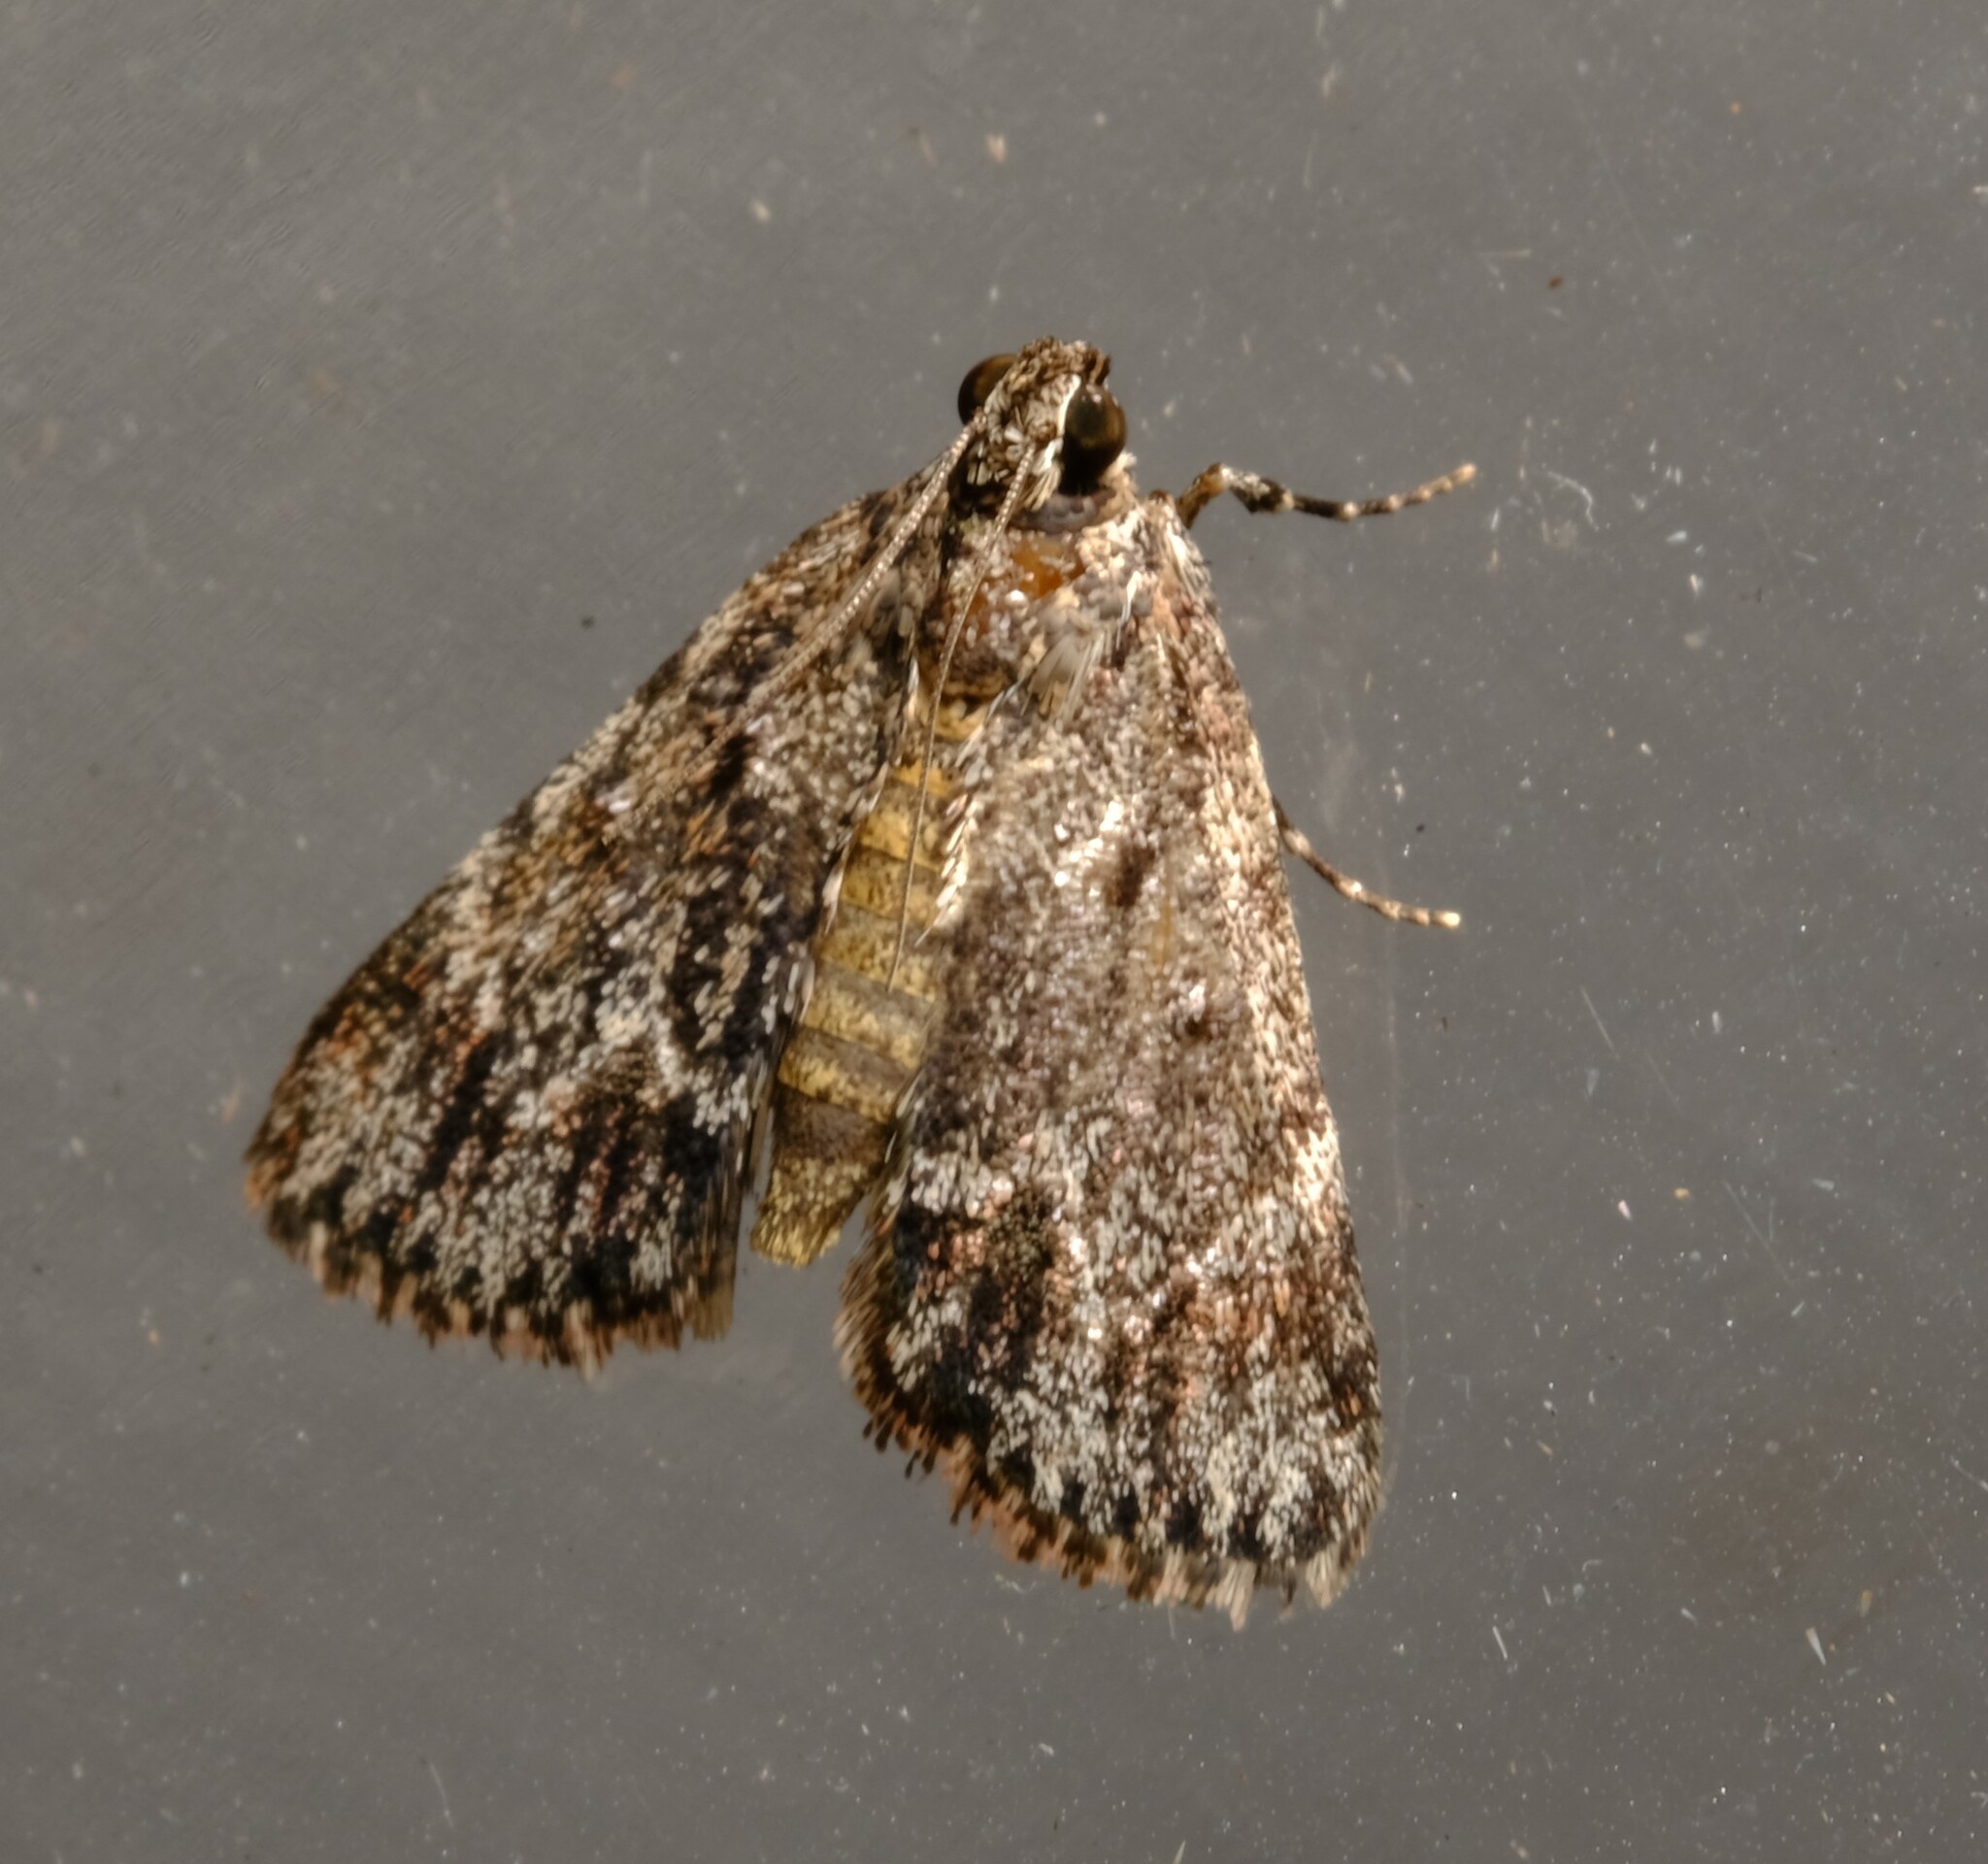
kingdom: Animalia
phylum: Arthropoda
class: Insecta
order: Lepidoptera
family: Pyralidae
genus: Spectrotrota
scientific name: Spectrotrota fimbrialis
